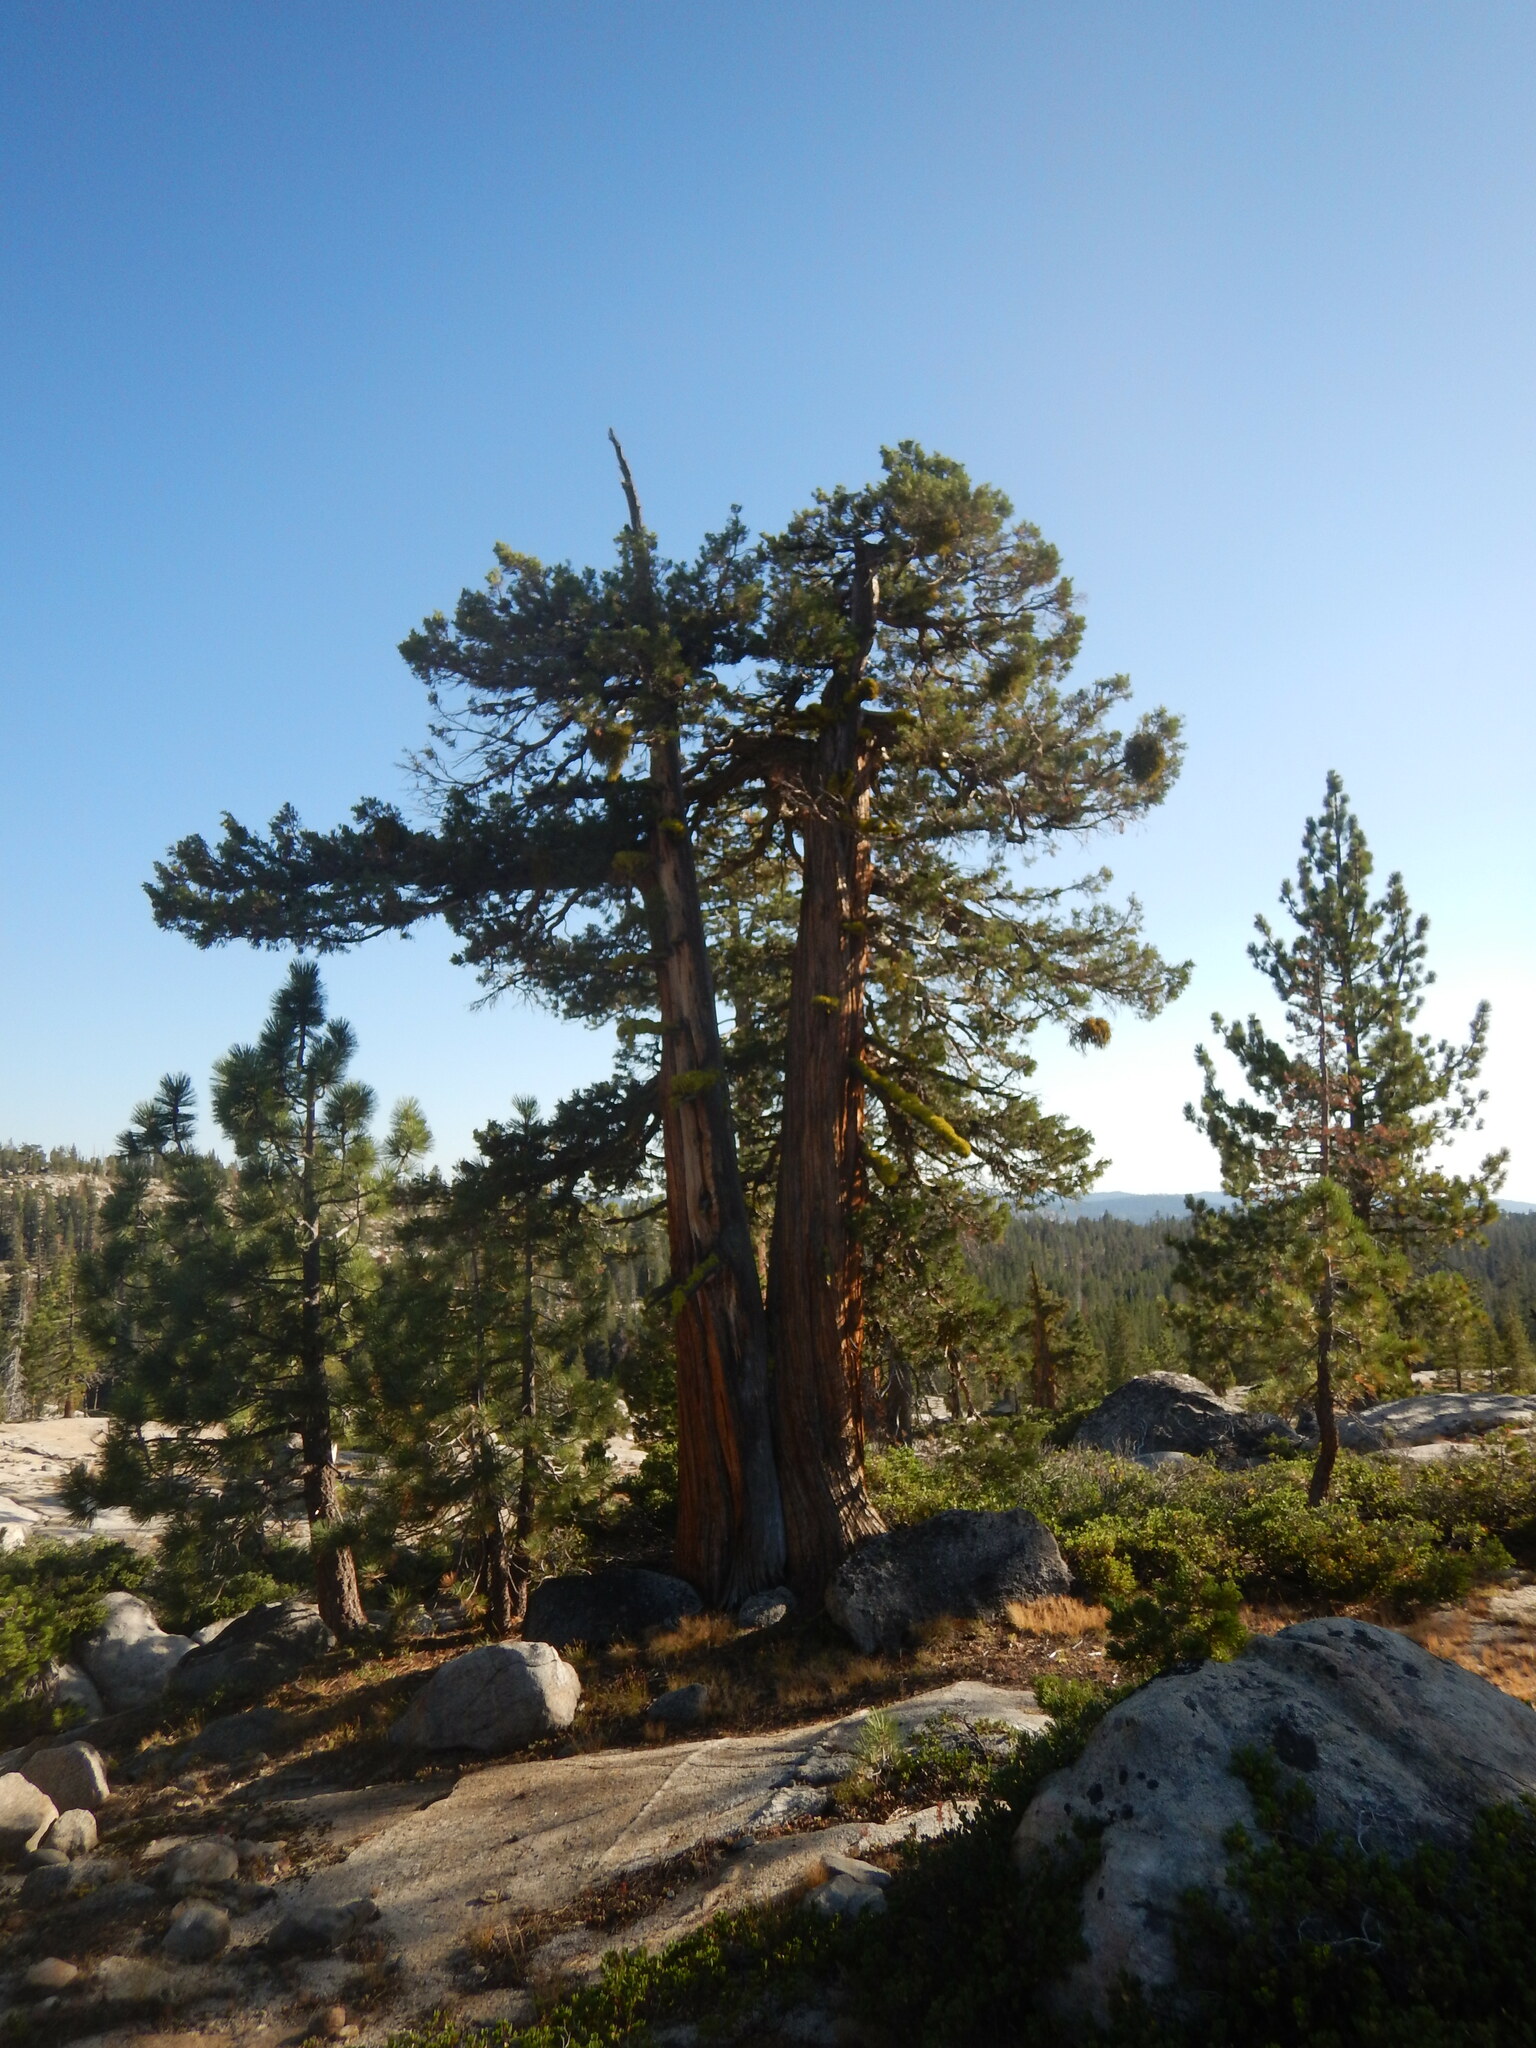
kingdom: Plantae
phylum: Tracheophyta
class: Pinopsida
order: Pinales
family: Cupressaceae
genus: Juniperus
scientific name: Juniperus occidentalis
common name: Western juniper
